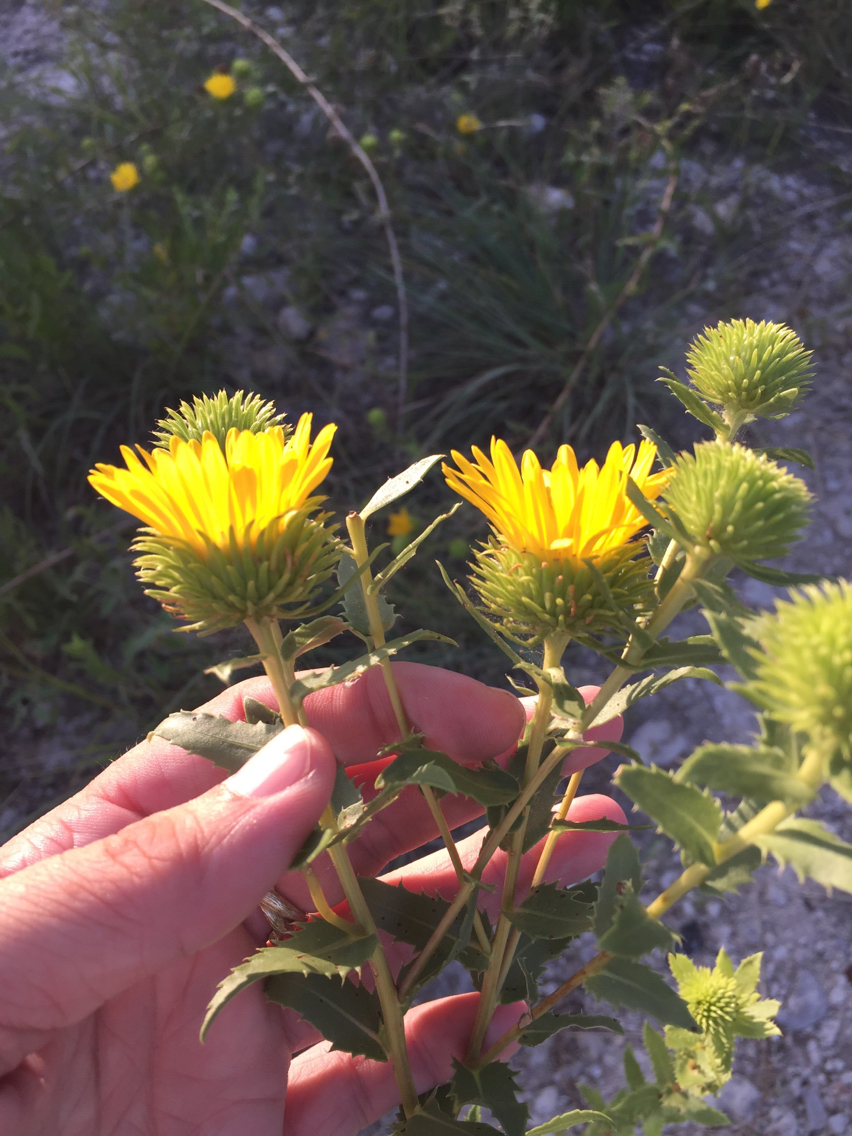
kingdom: Plantae
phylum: Tracheophyta
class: Magnoliopsida
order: Asterales
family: Asteraceae
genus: Grindelia
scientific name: Grindelia lanceolata
